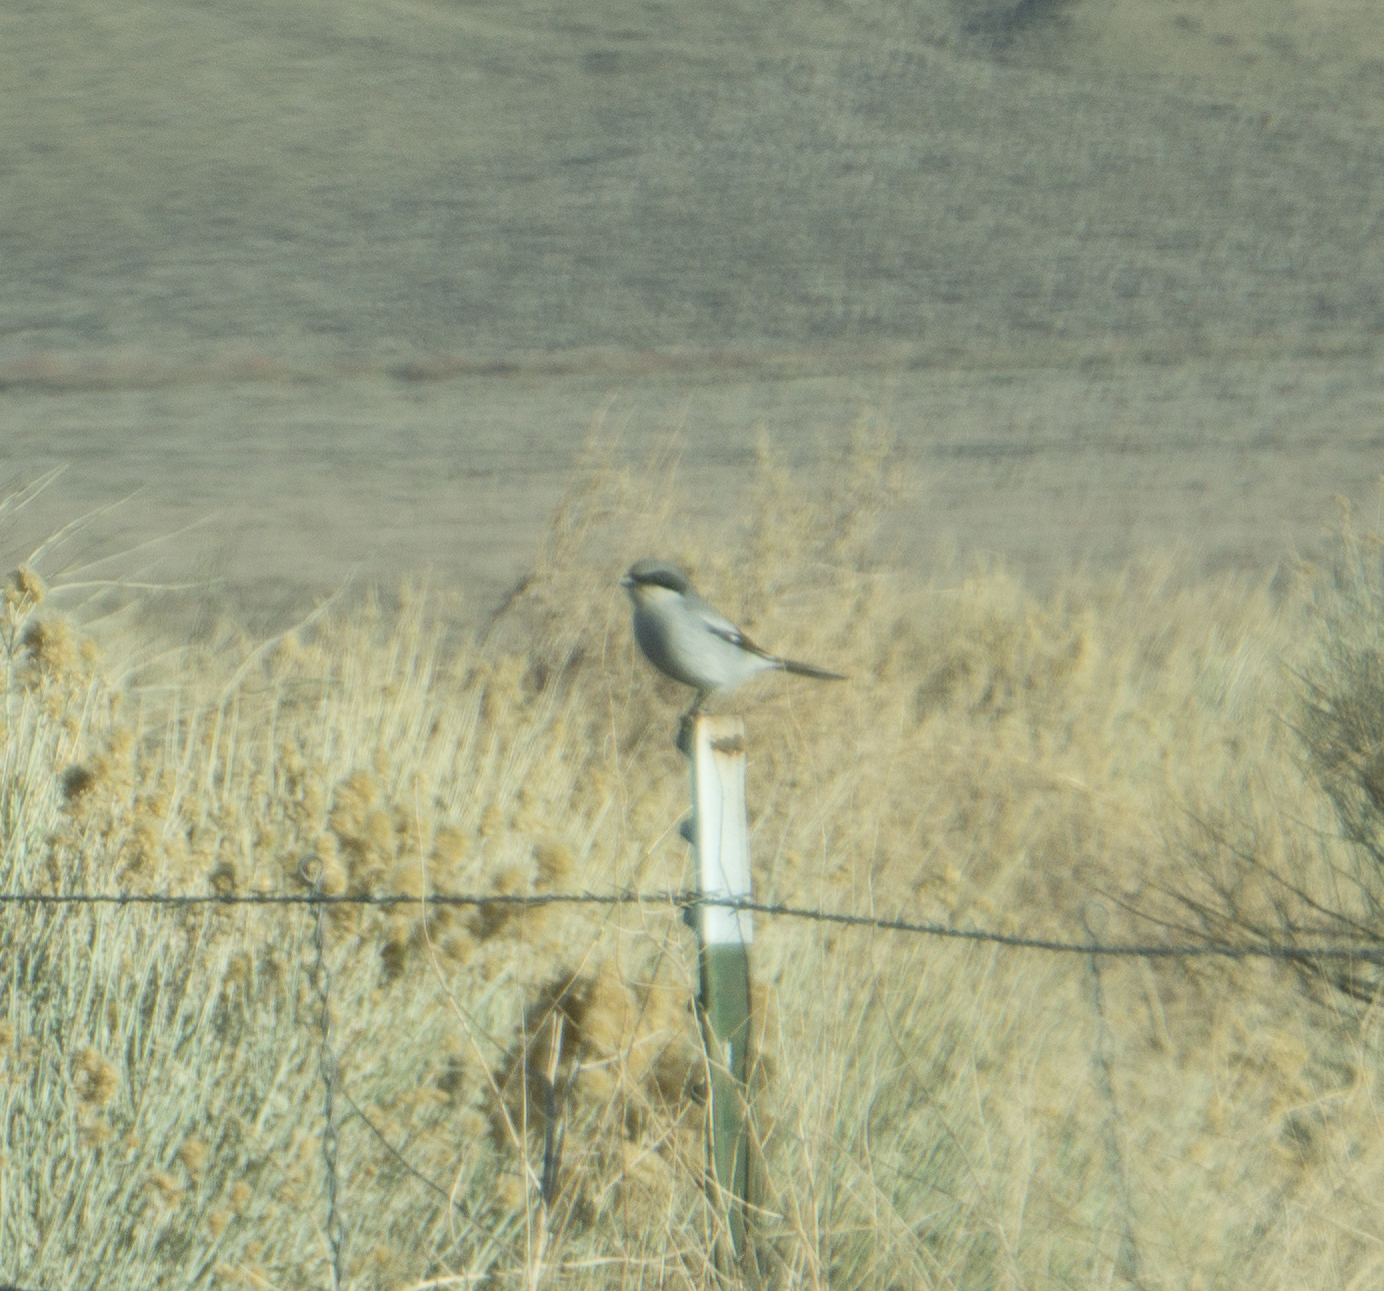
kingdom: Animalia
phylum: Chordata
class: Aves
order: Passeriformes
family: Laniidae
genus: Lanius
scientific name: Lanius ludovicianus
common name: Loggerhead shrike
